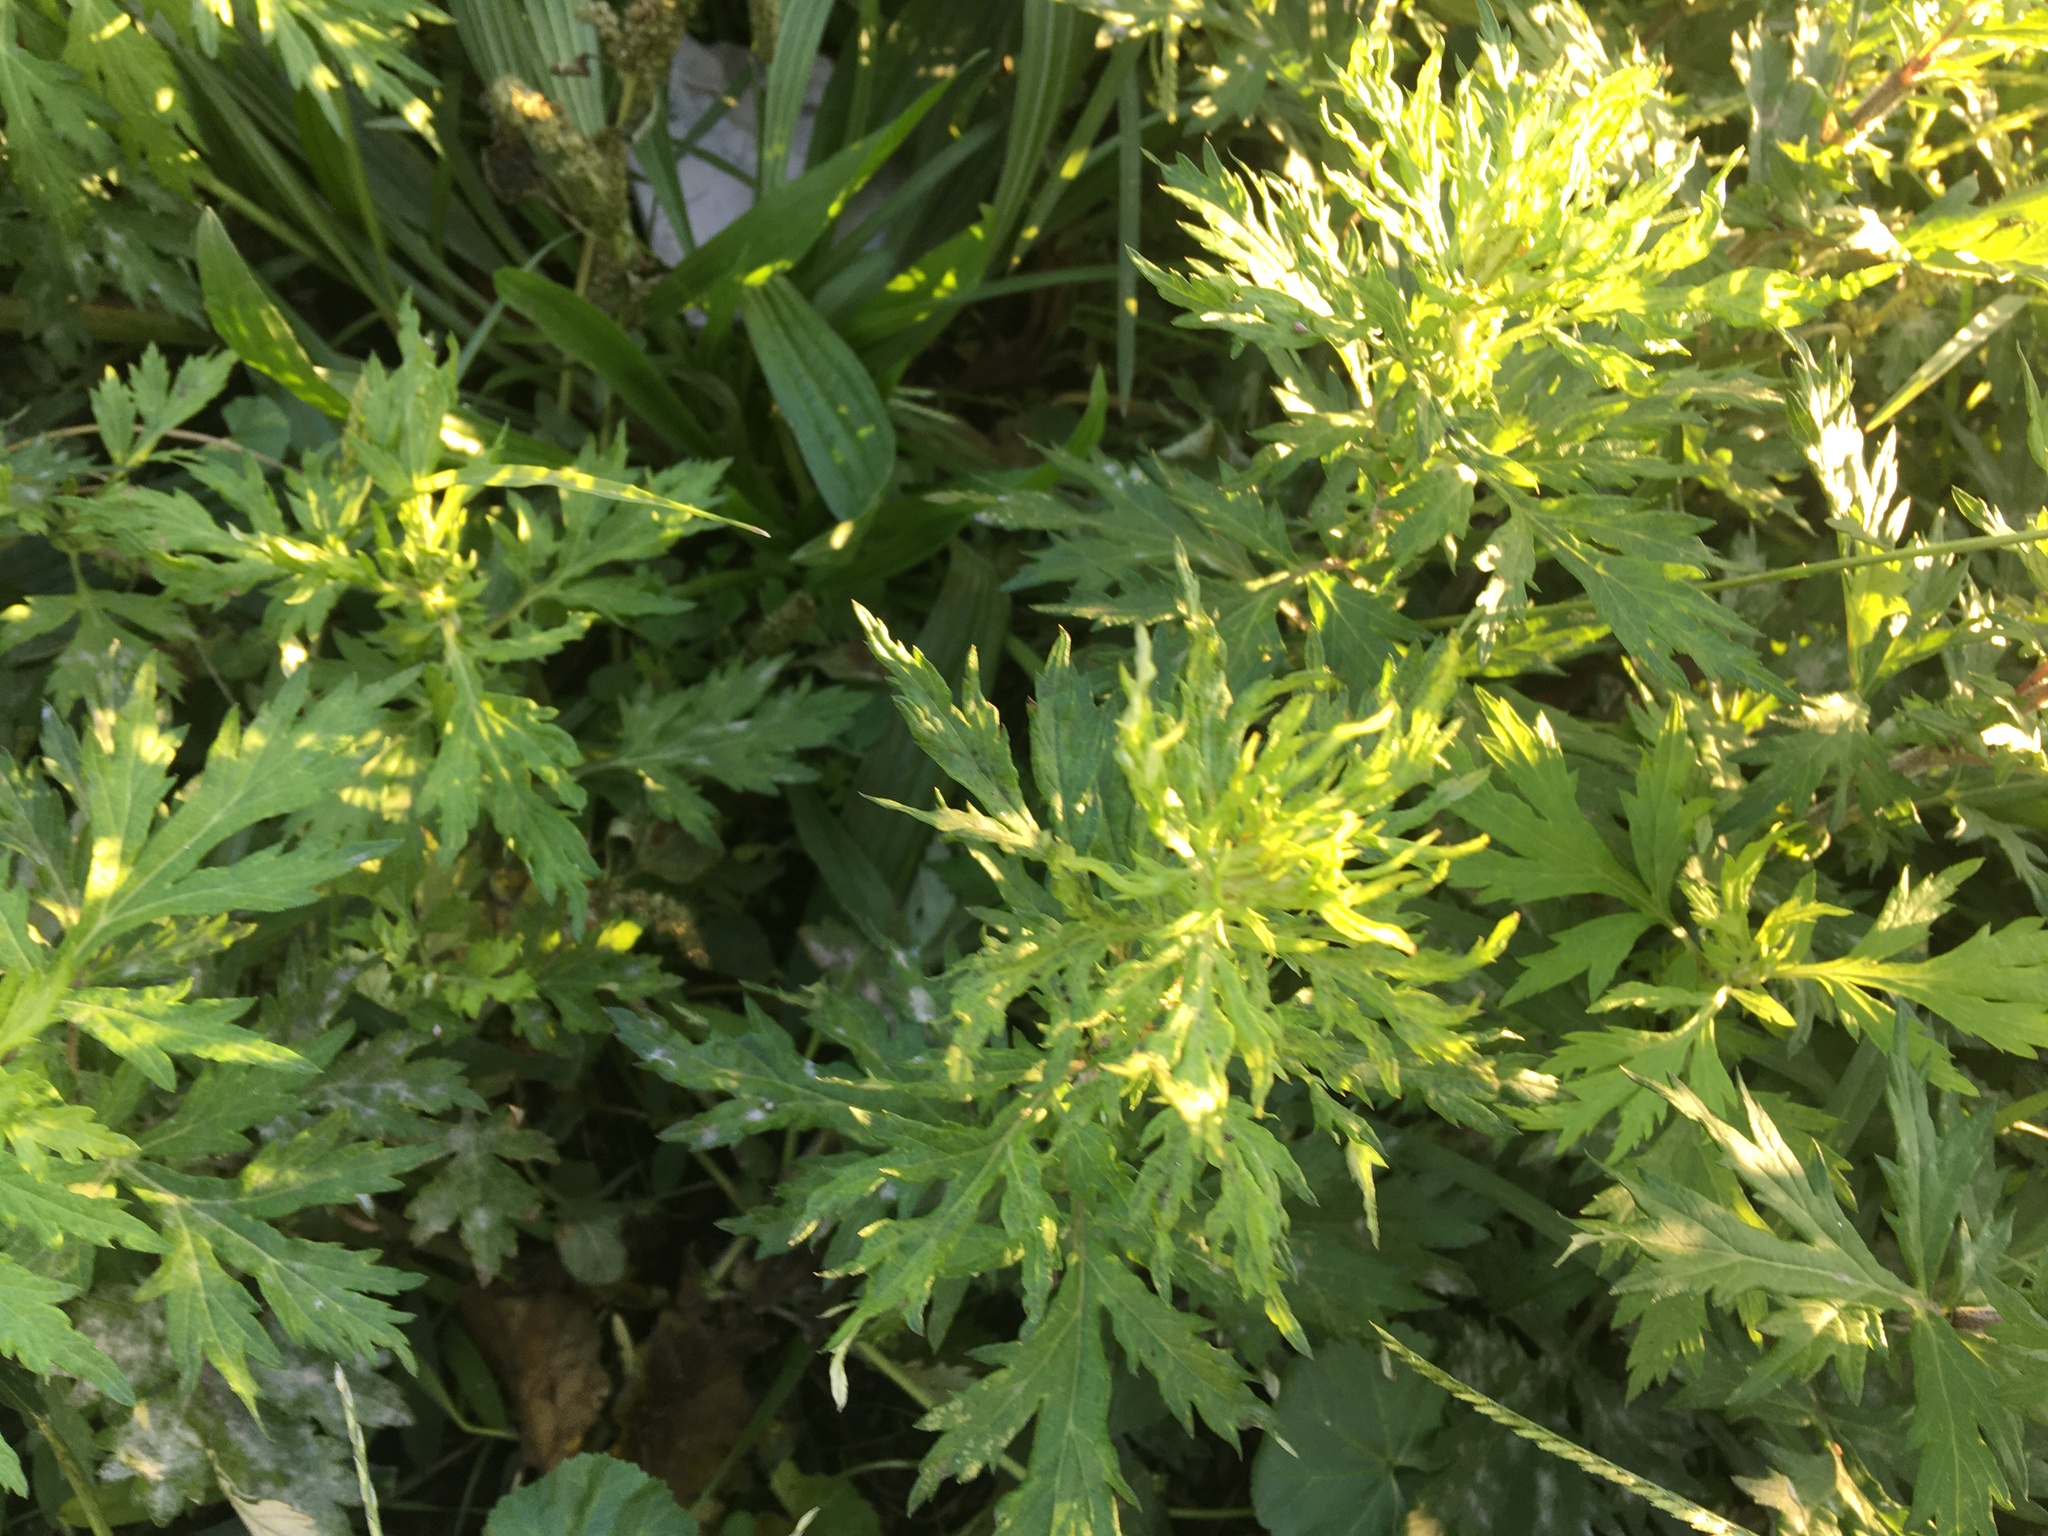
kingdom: Plantae
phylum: Tracheophyta
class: Magnoliopsida
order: Asterales
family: Asteraceae
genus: Artemisia
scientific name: Artemisia vulgaris
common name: Mugwort
